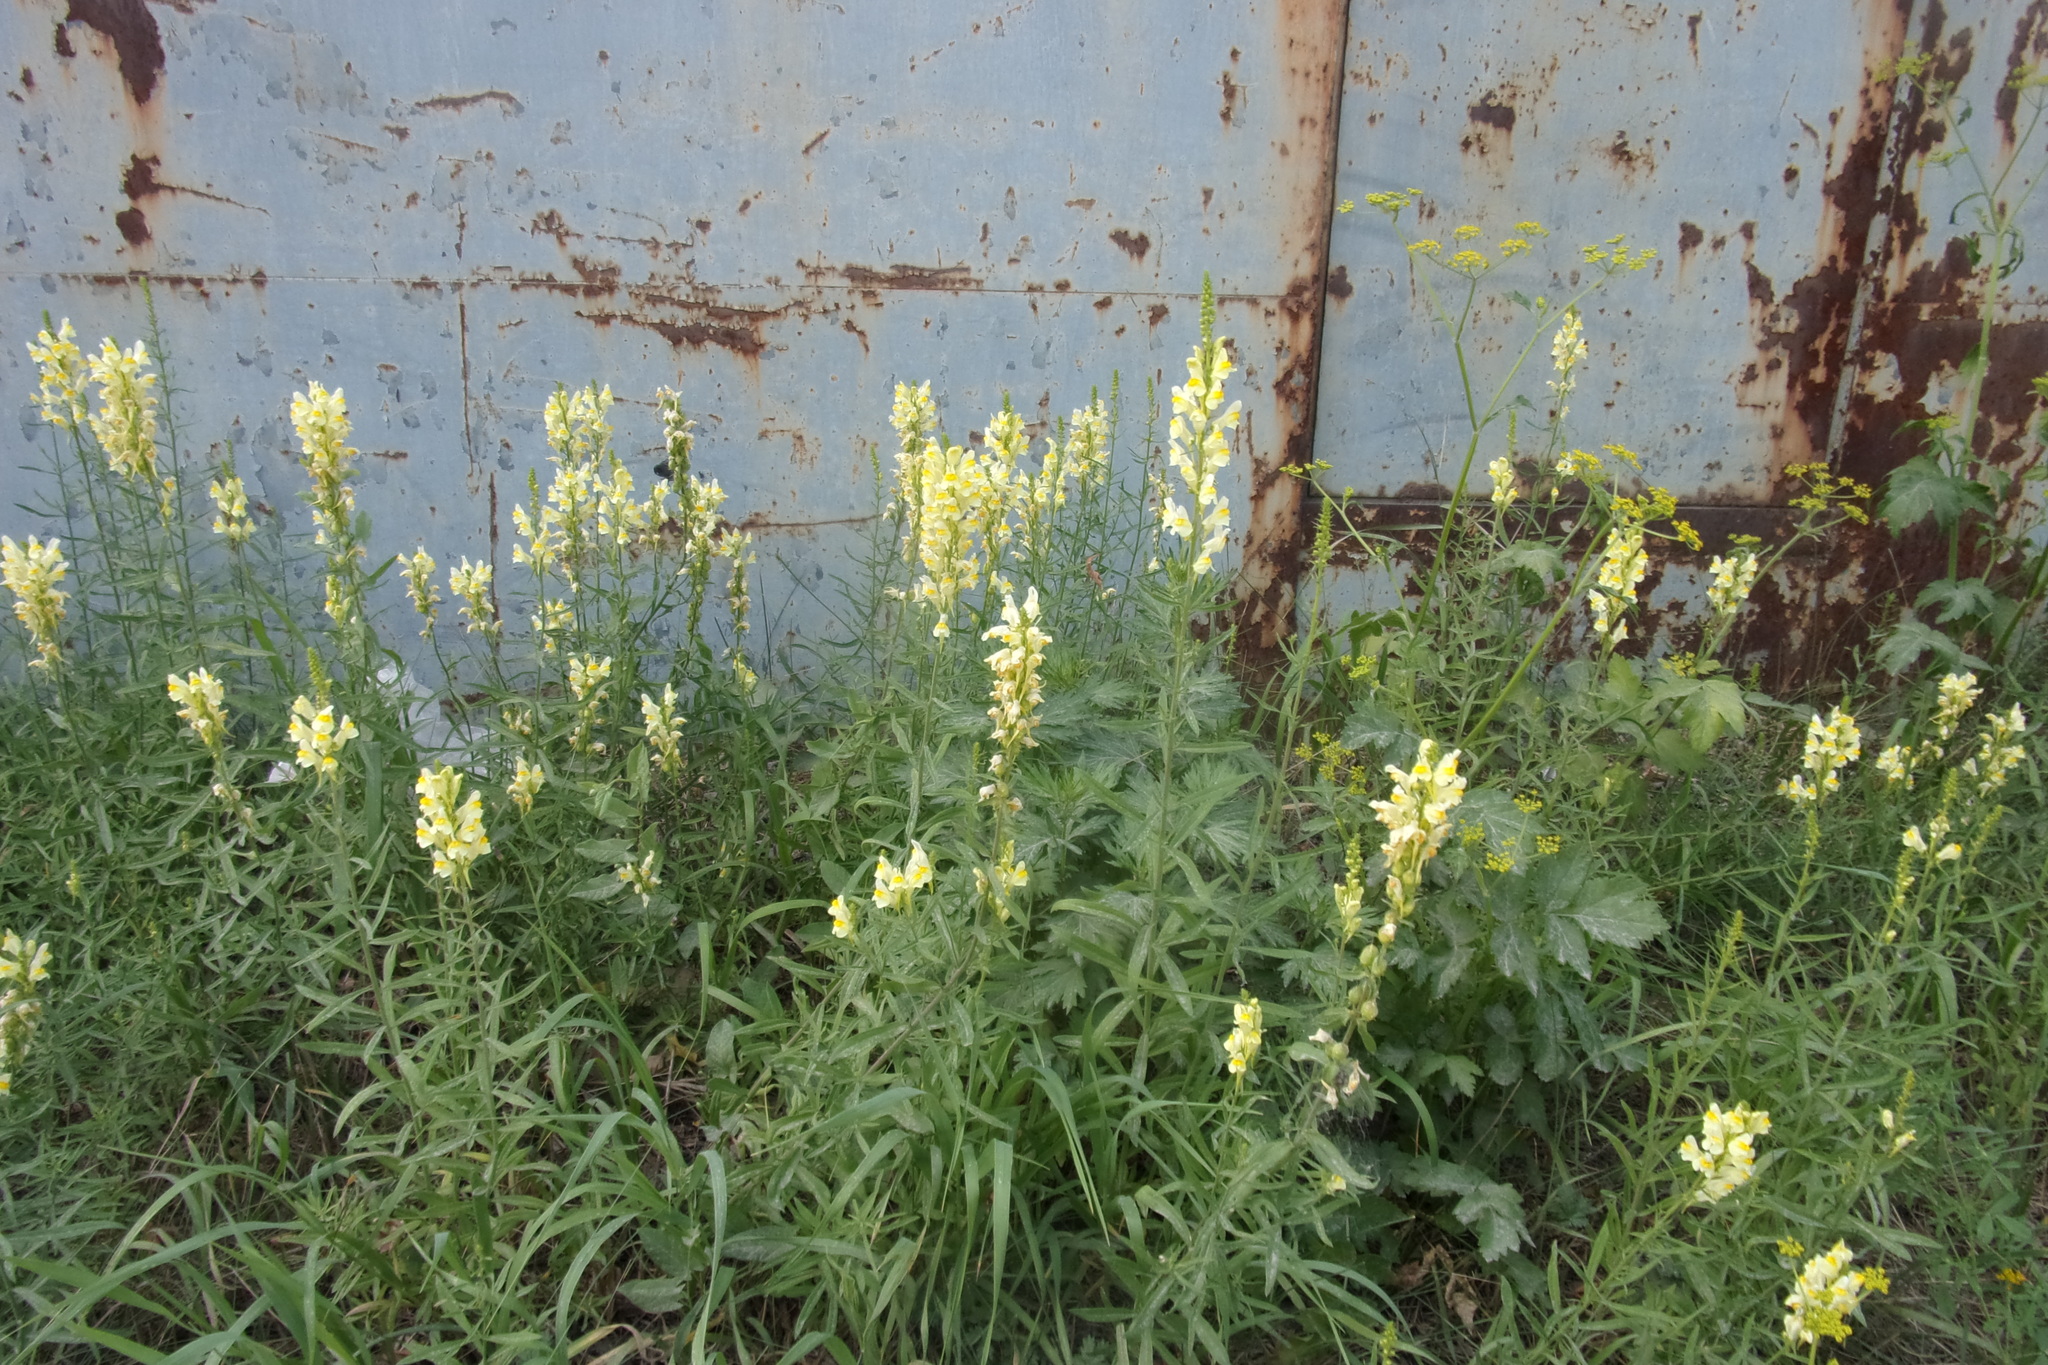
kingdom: Plantae
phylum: Tracheophyta
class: Magnoliopsida
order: Lamiales
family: Plantaginaceae
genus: Linaria
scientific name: Linaria vulgaris
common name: Butter and eggs
